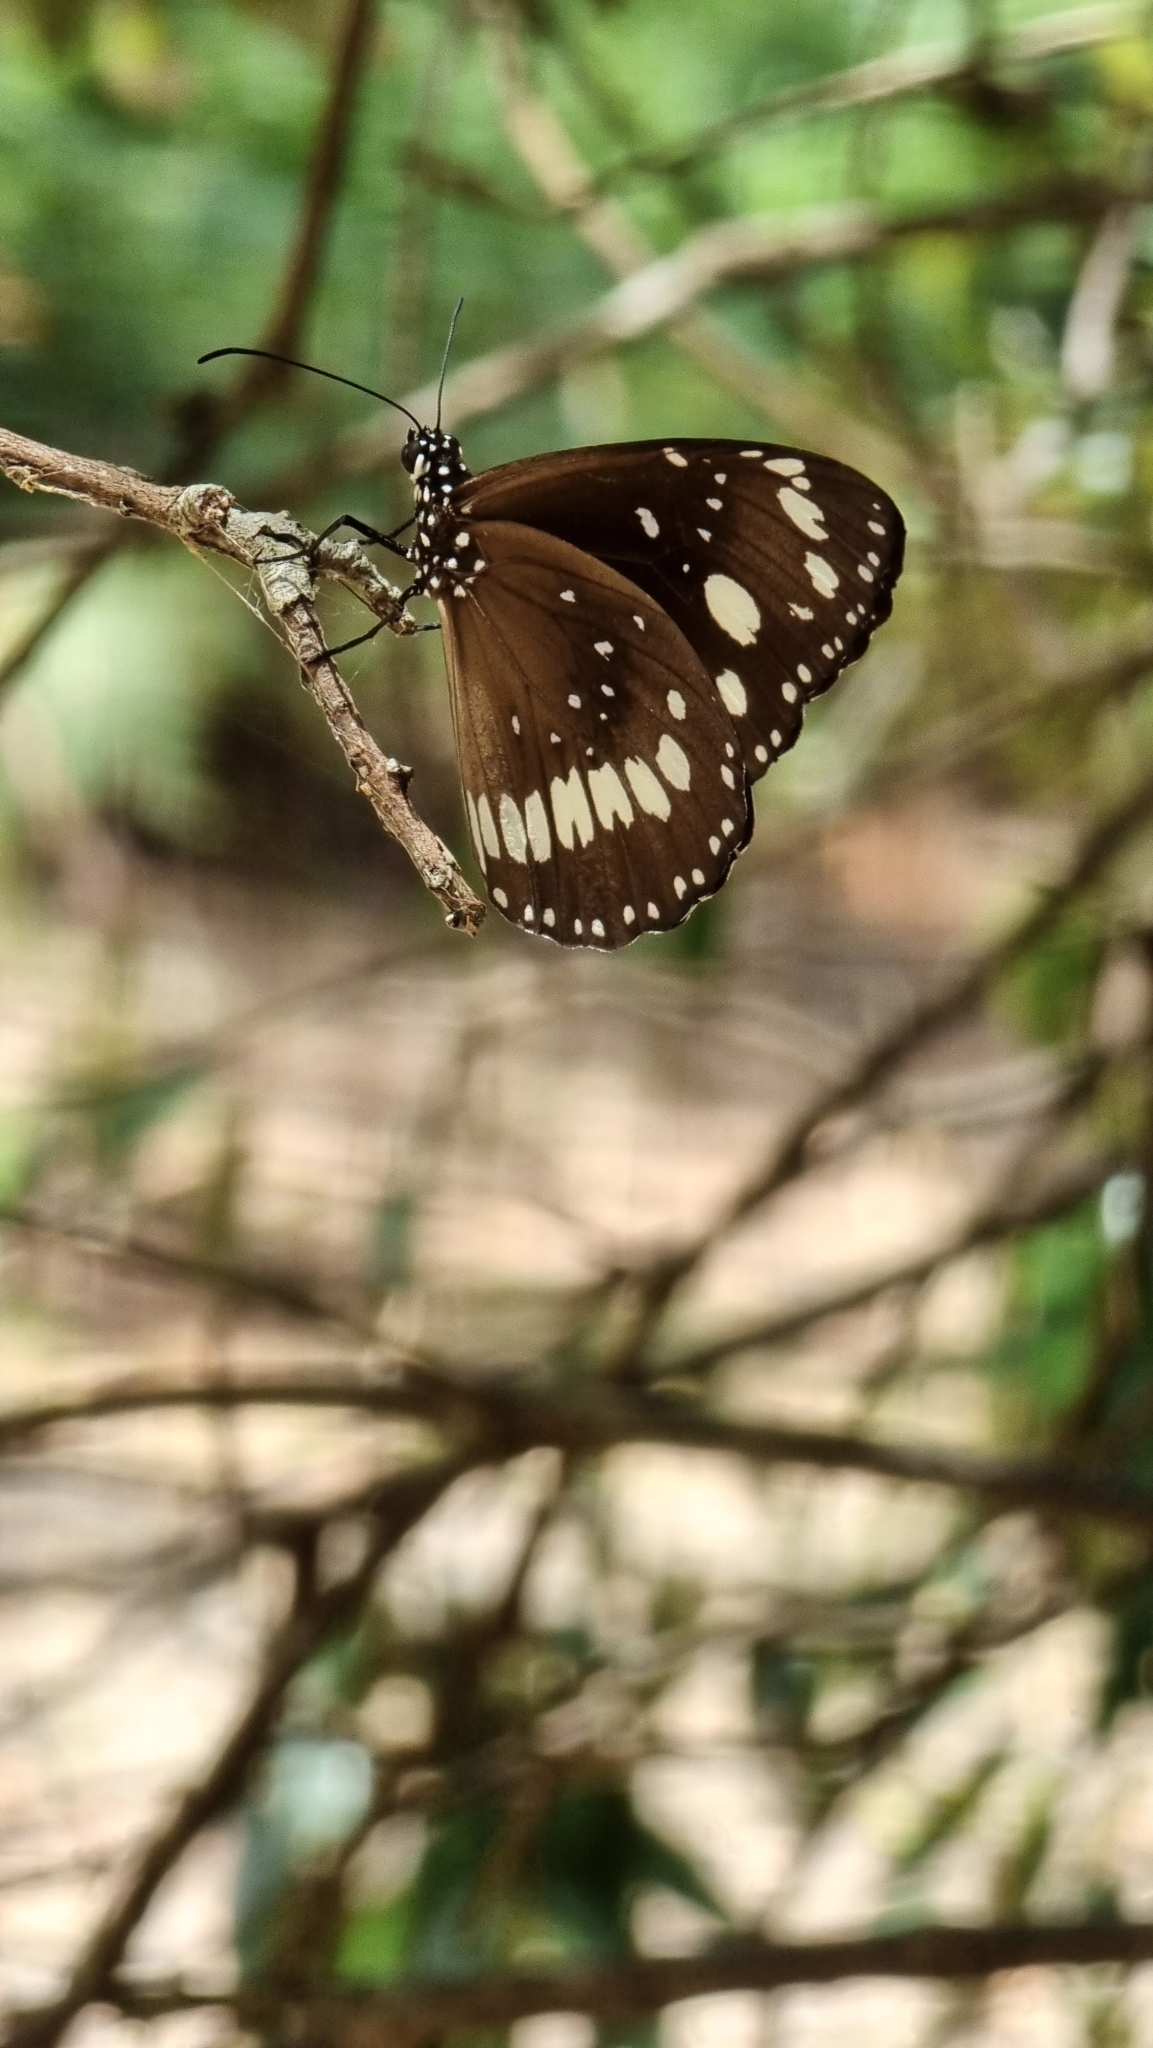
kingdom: Animalia
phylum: Arthropoda
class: Insecta
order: Lepidoptera
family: Nymphalidae
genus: Euploea
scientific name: Euploea core
